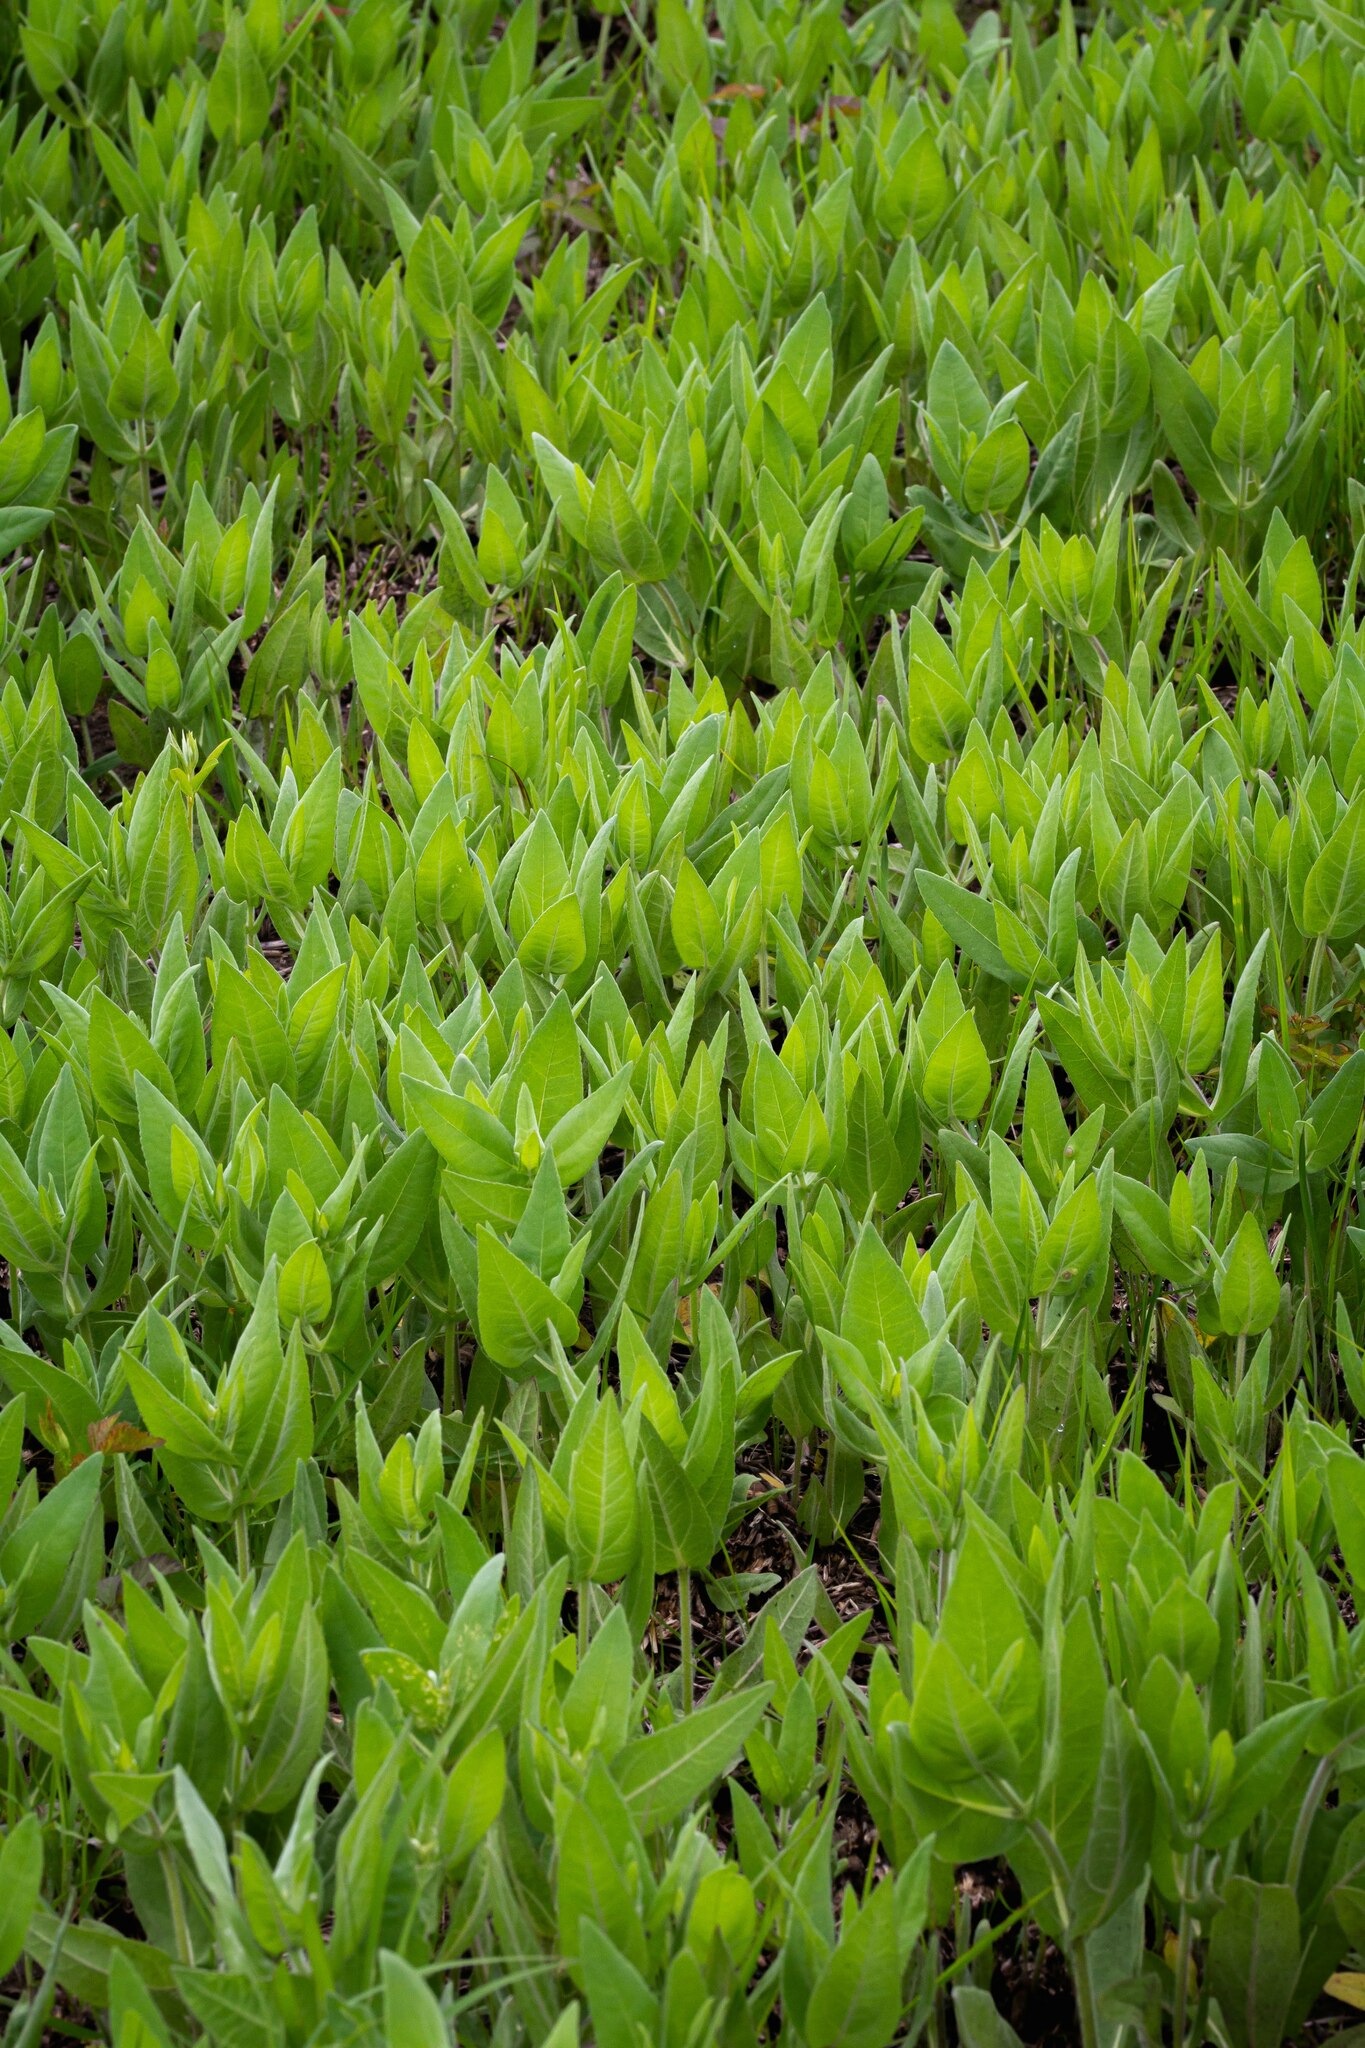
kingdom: Plantae
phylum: Tracheophyta
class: Magnoliopsida
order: Asterales
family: Asteraceae
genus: Helianthus
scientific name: Helianthus mollis
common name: Ashy sunflower
